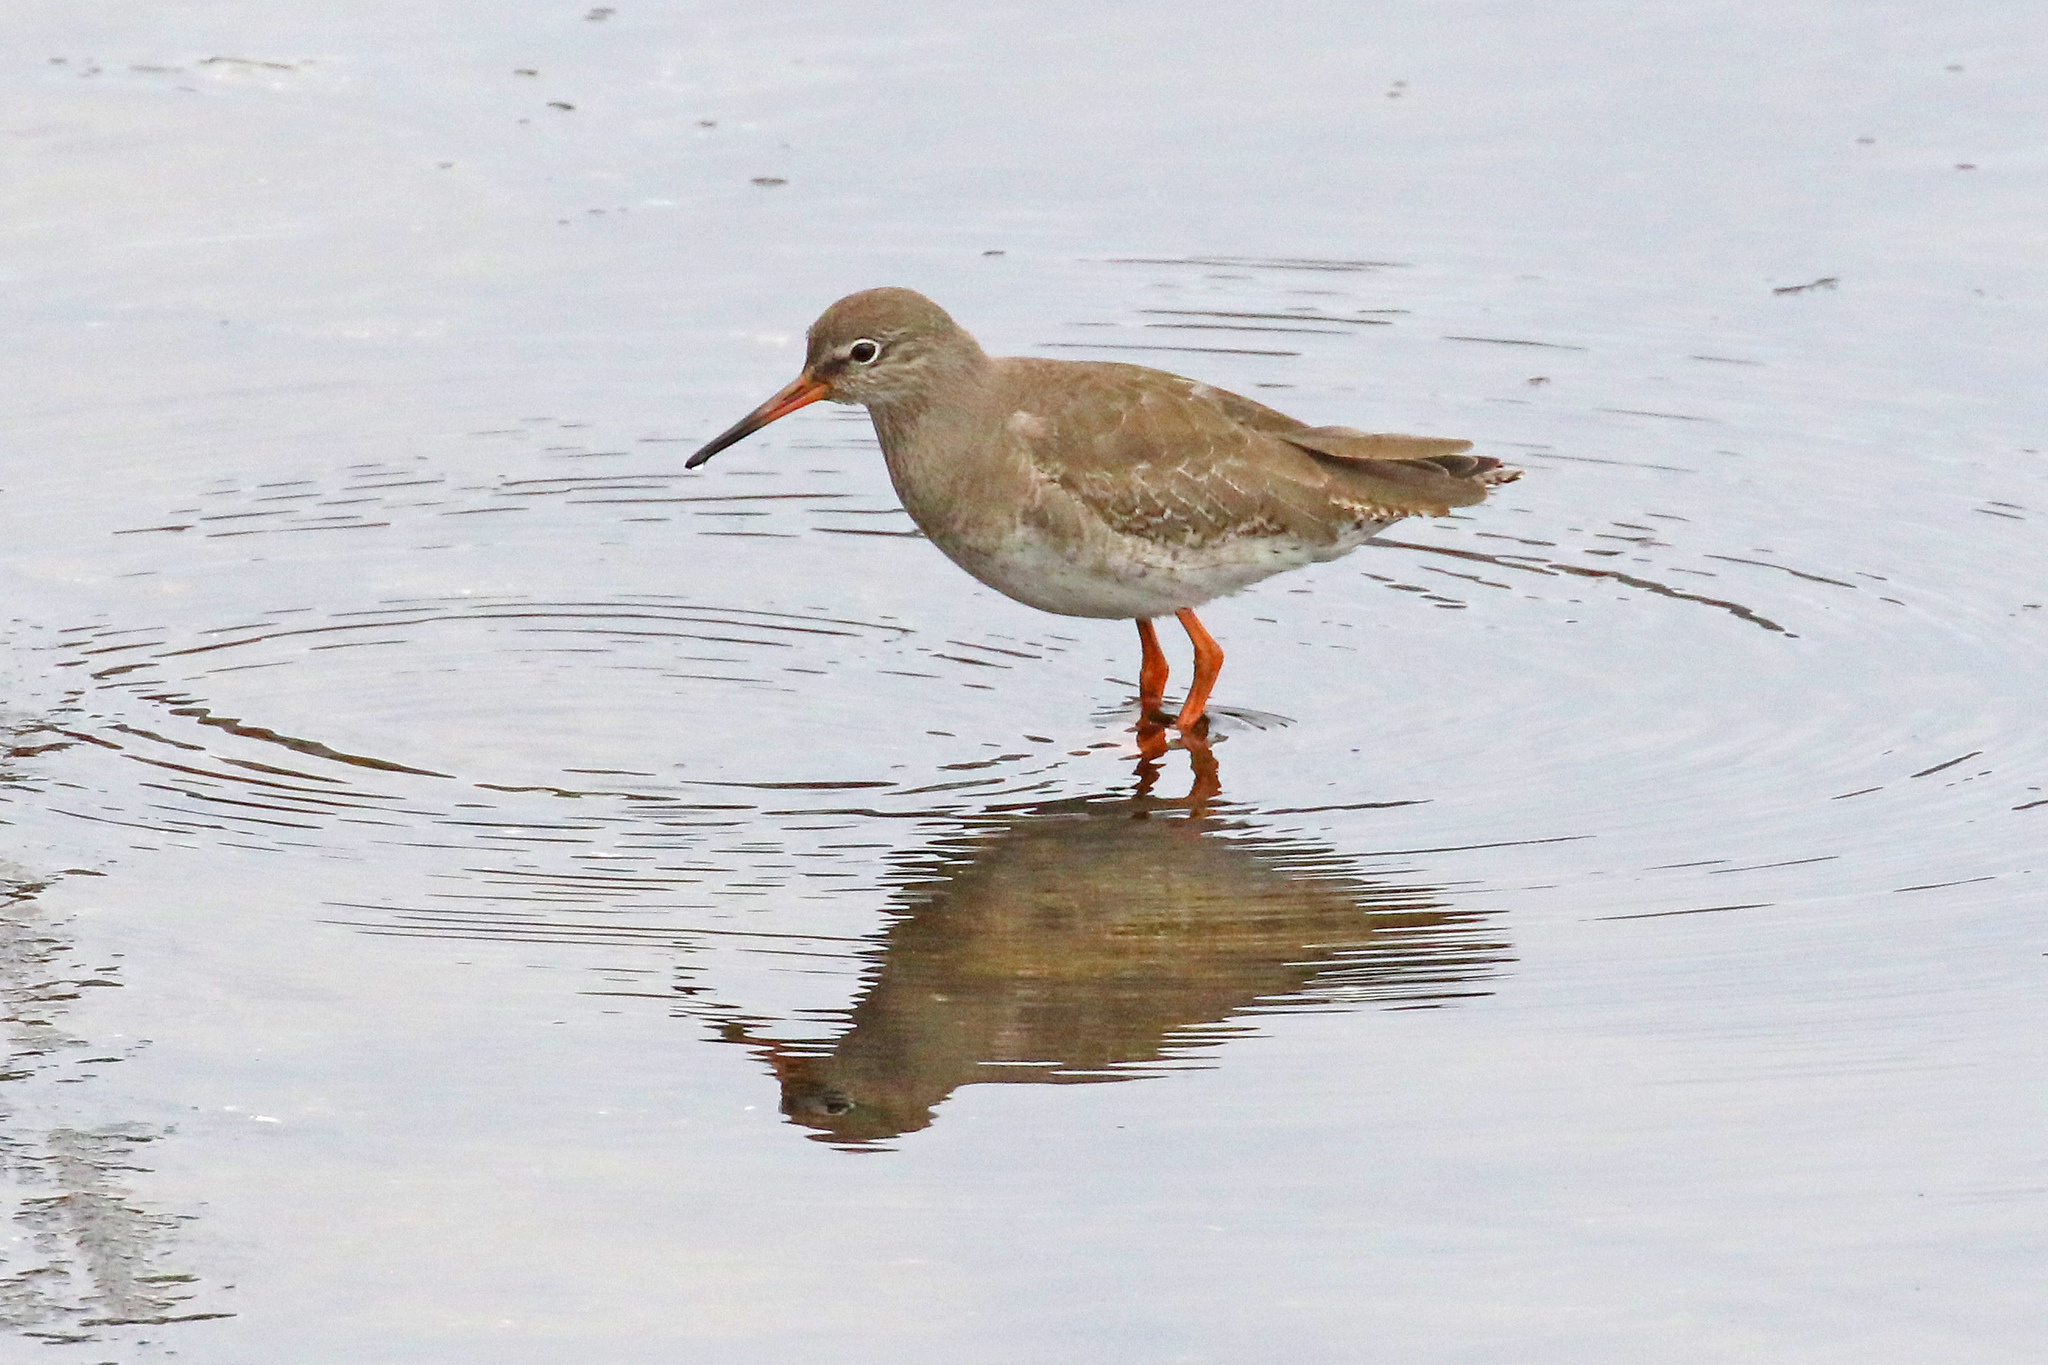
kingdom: Animalia
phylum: Chordata
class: Aves
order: Charadriiformes
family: Scolopacidae
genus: Tringa
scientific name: Tringa totanus
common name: Common redshank
